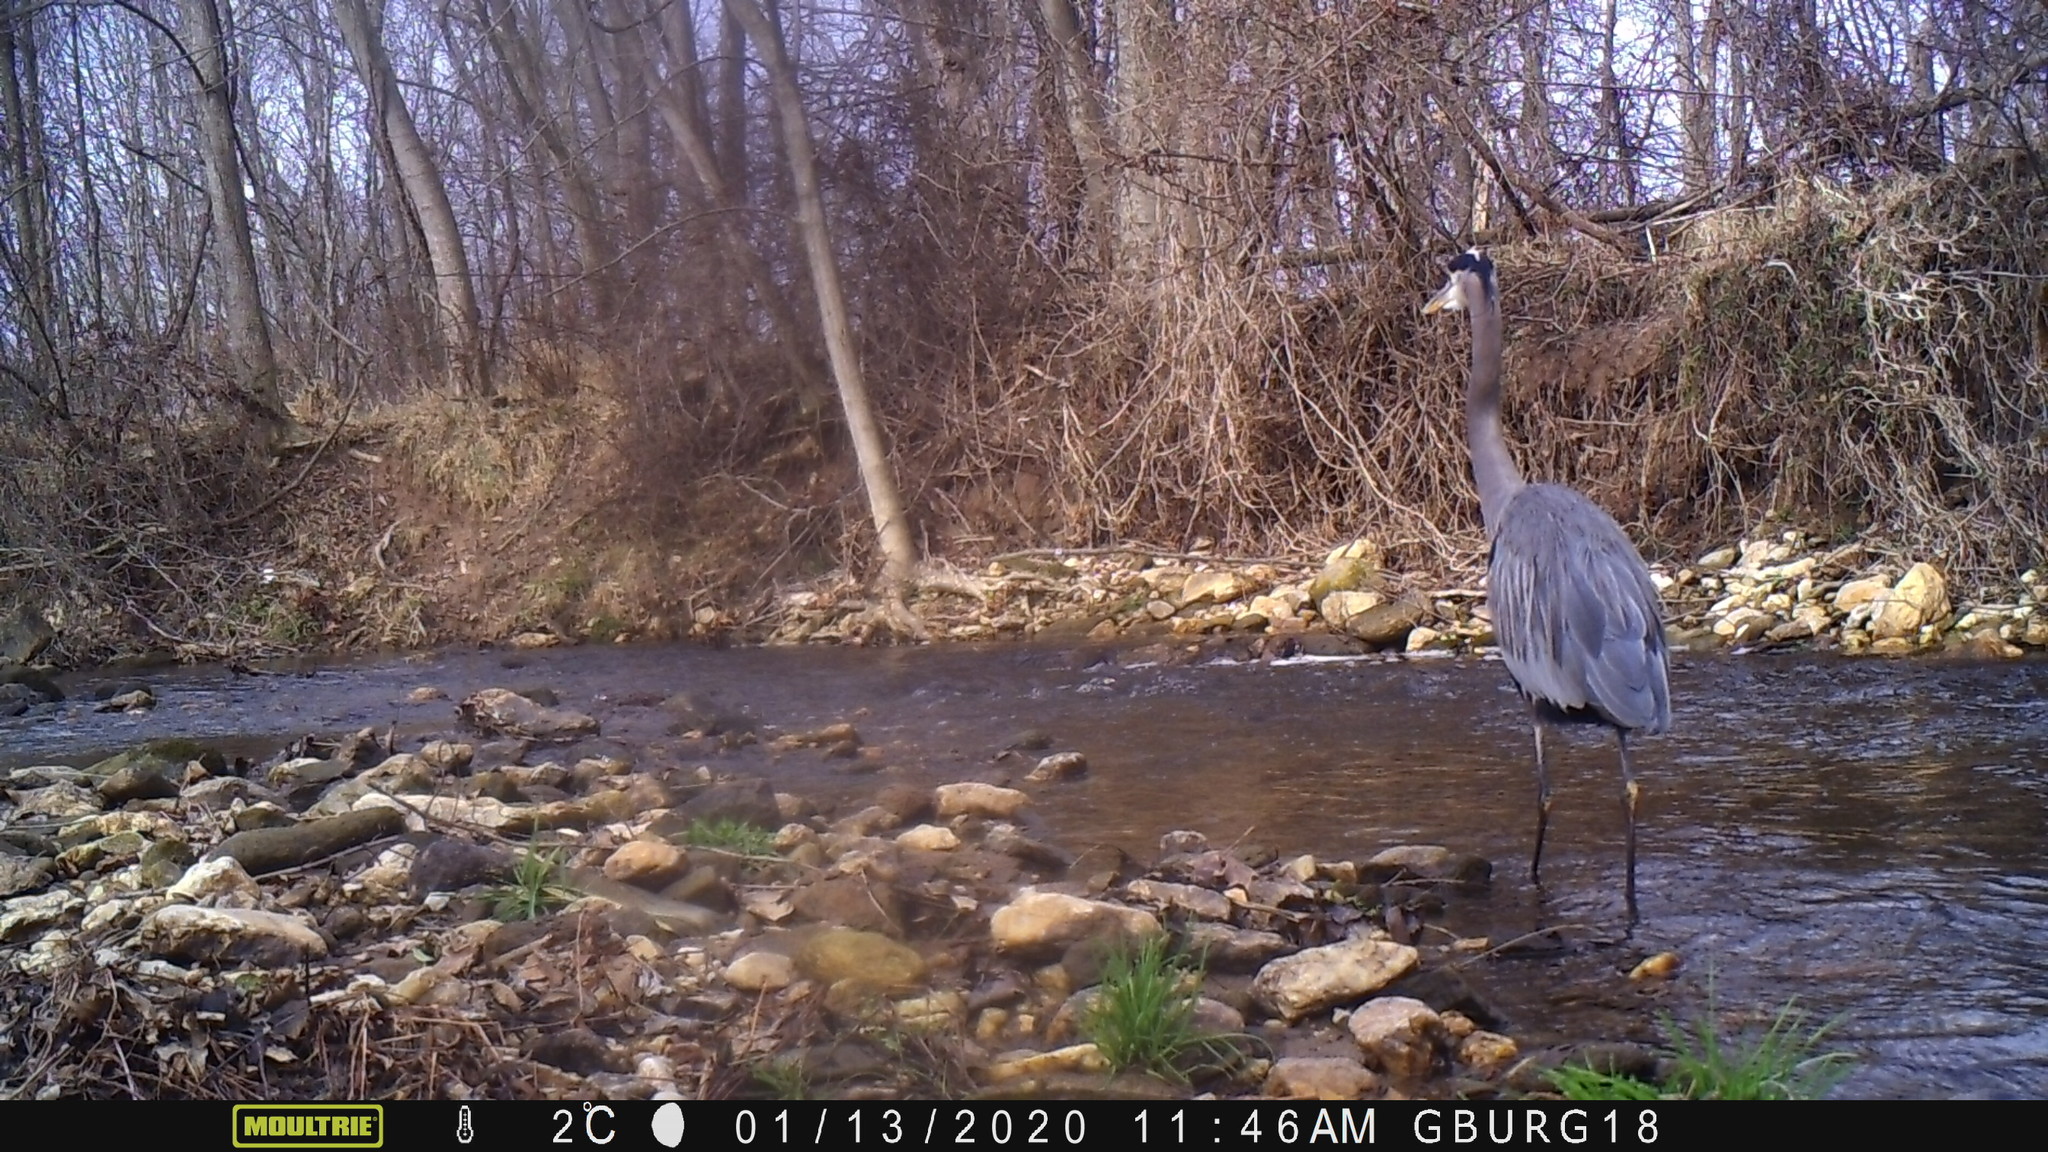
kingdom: Animalia
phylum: Chordata
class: Aves
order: Pelecaniformes
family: Ardeidae
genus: Ardea
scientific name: Ardea herodias
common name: Great blue heron
